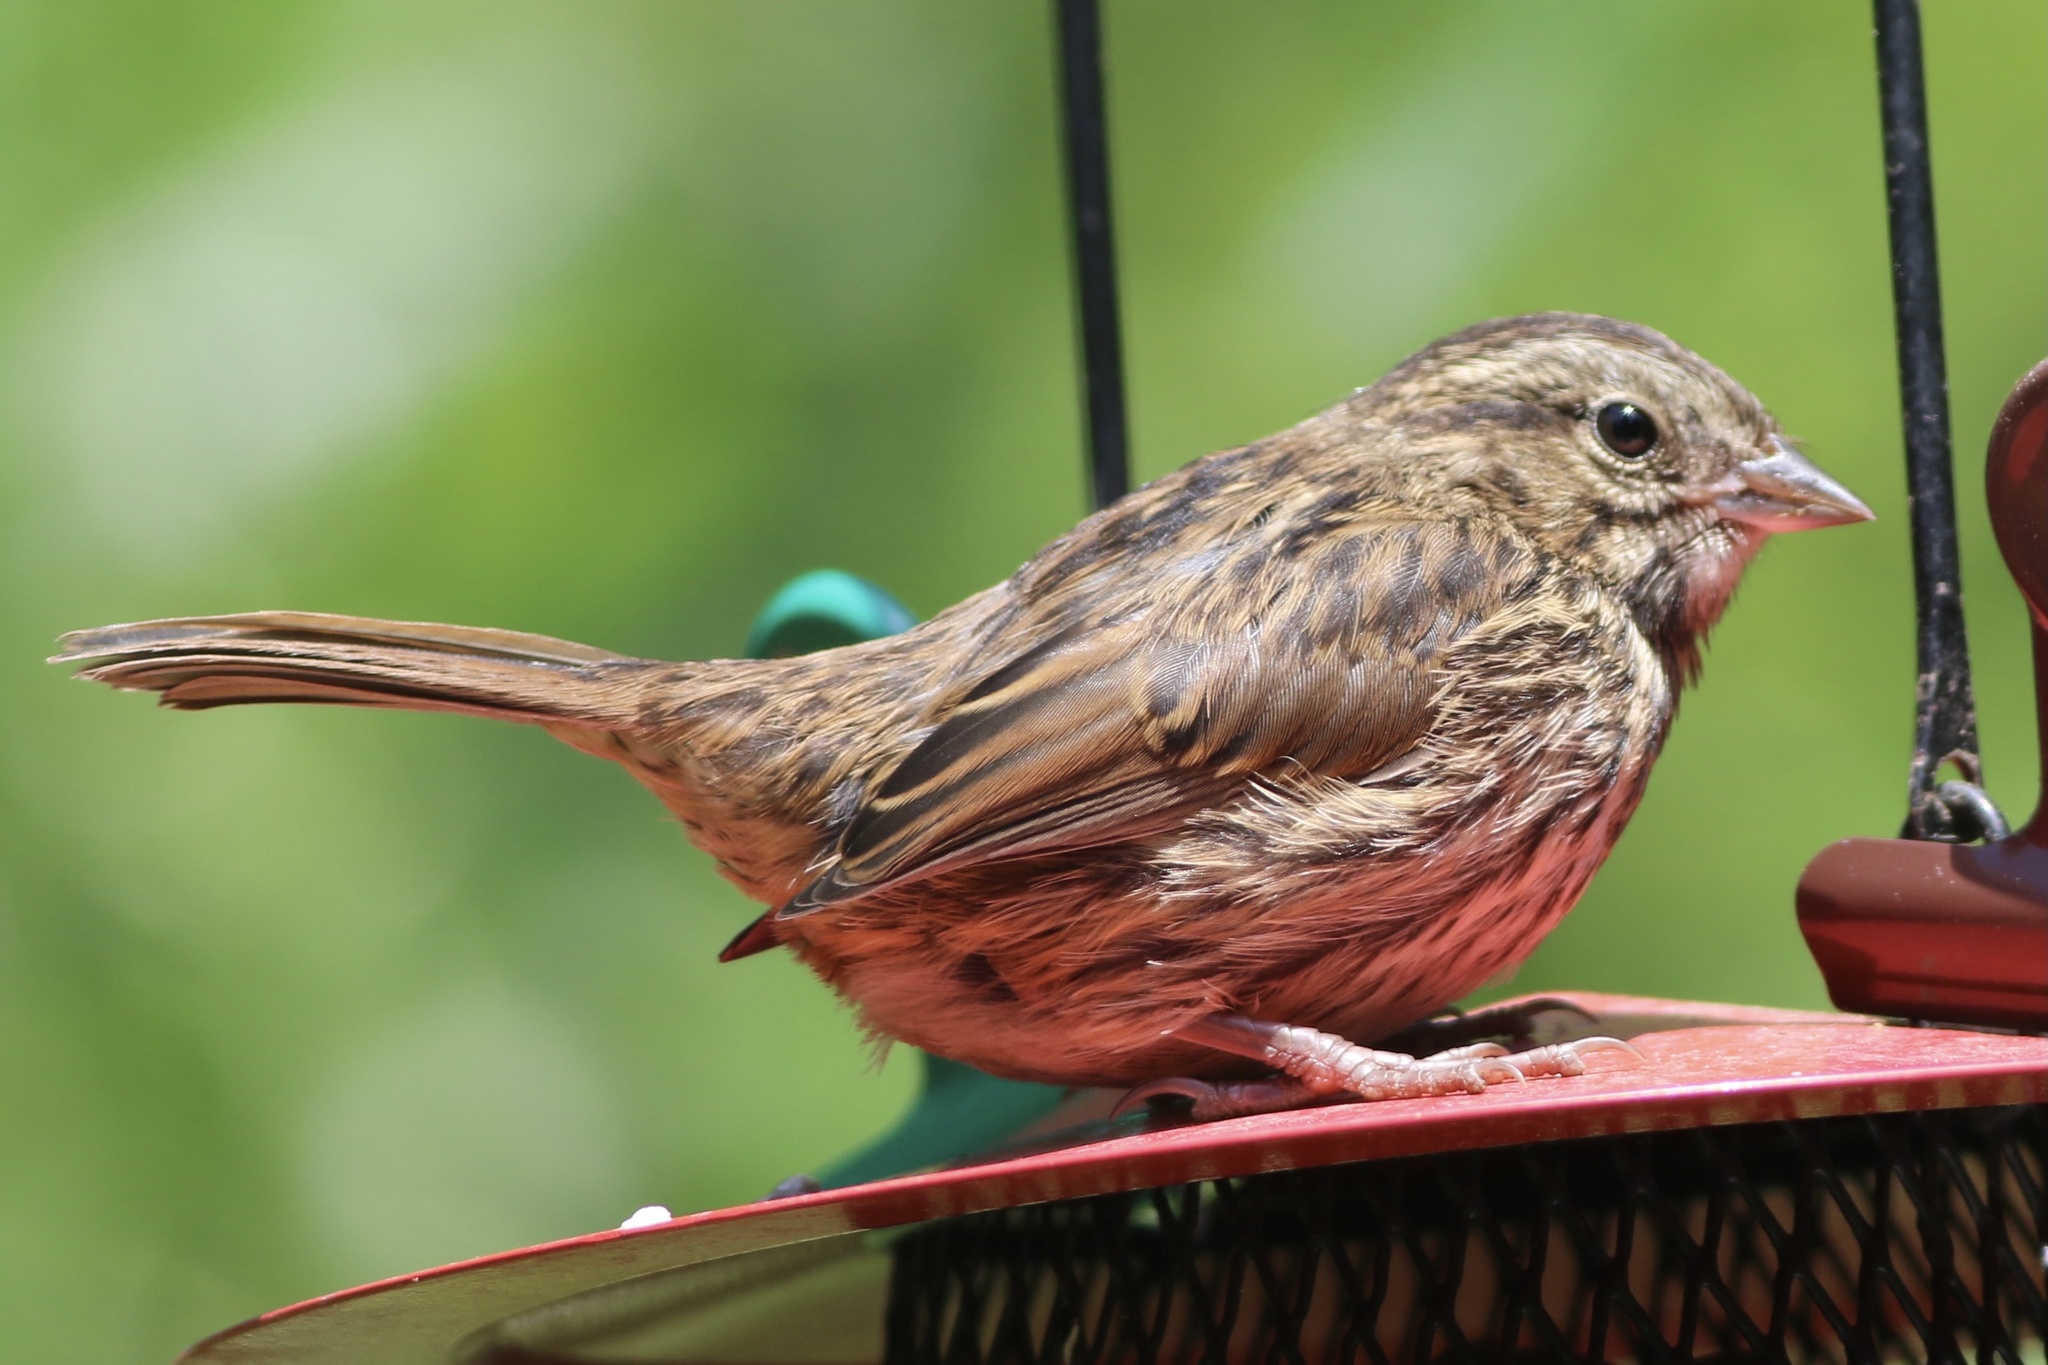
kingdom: Animalia
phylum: Chordata
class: Aves
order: Passeriformes
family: Passerellidae
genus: Melospiza
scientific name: Melospiza melodia
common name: Song sparrow
